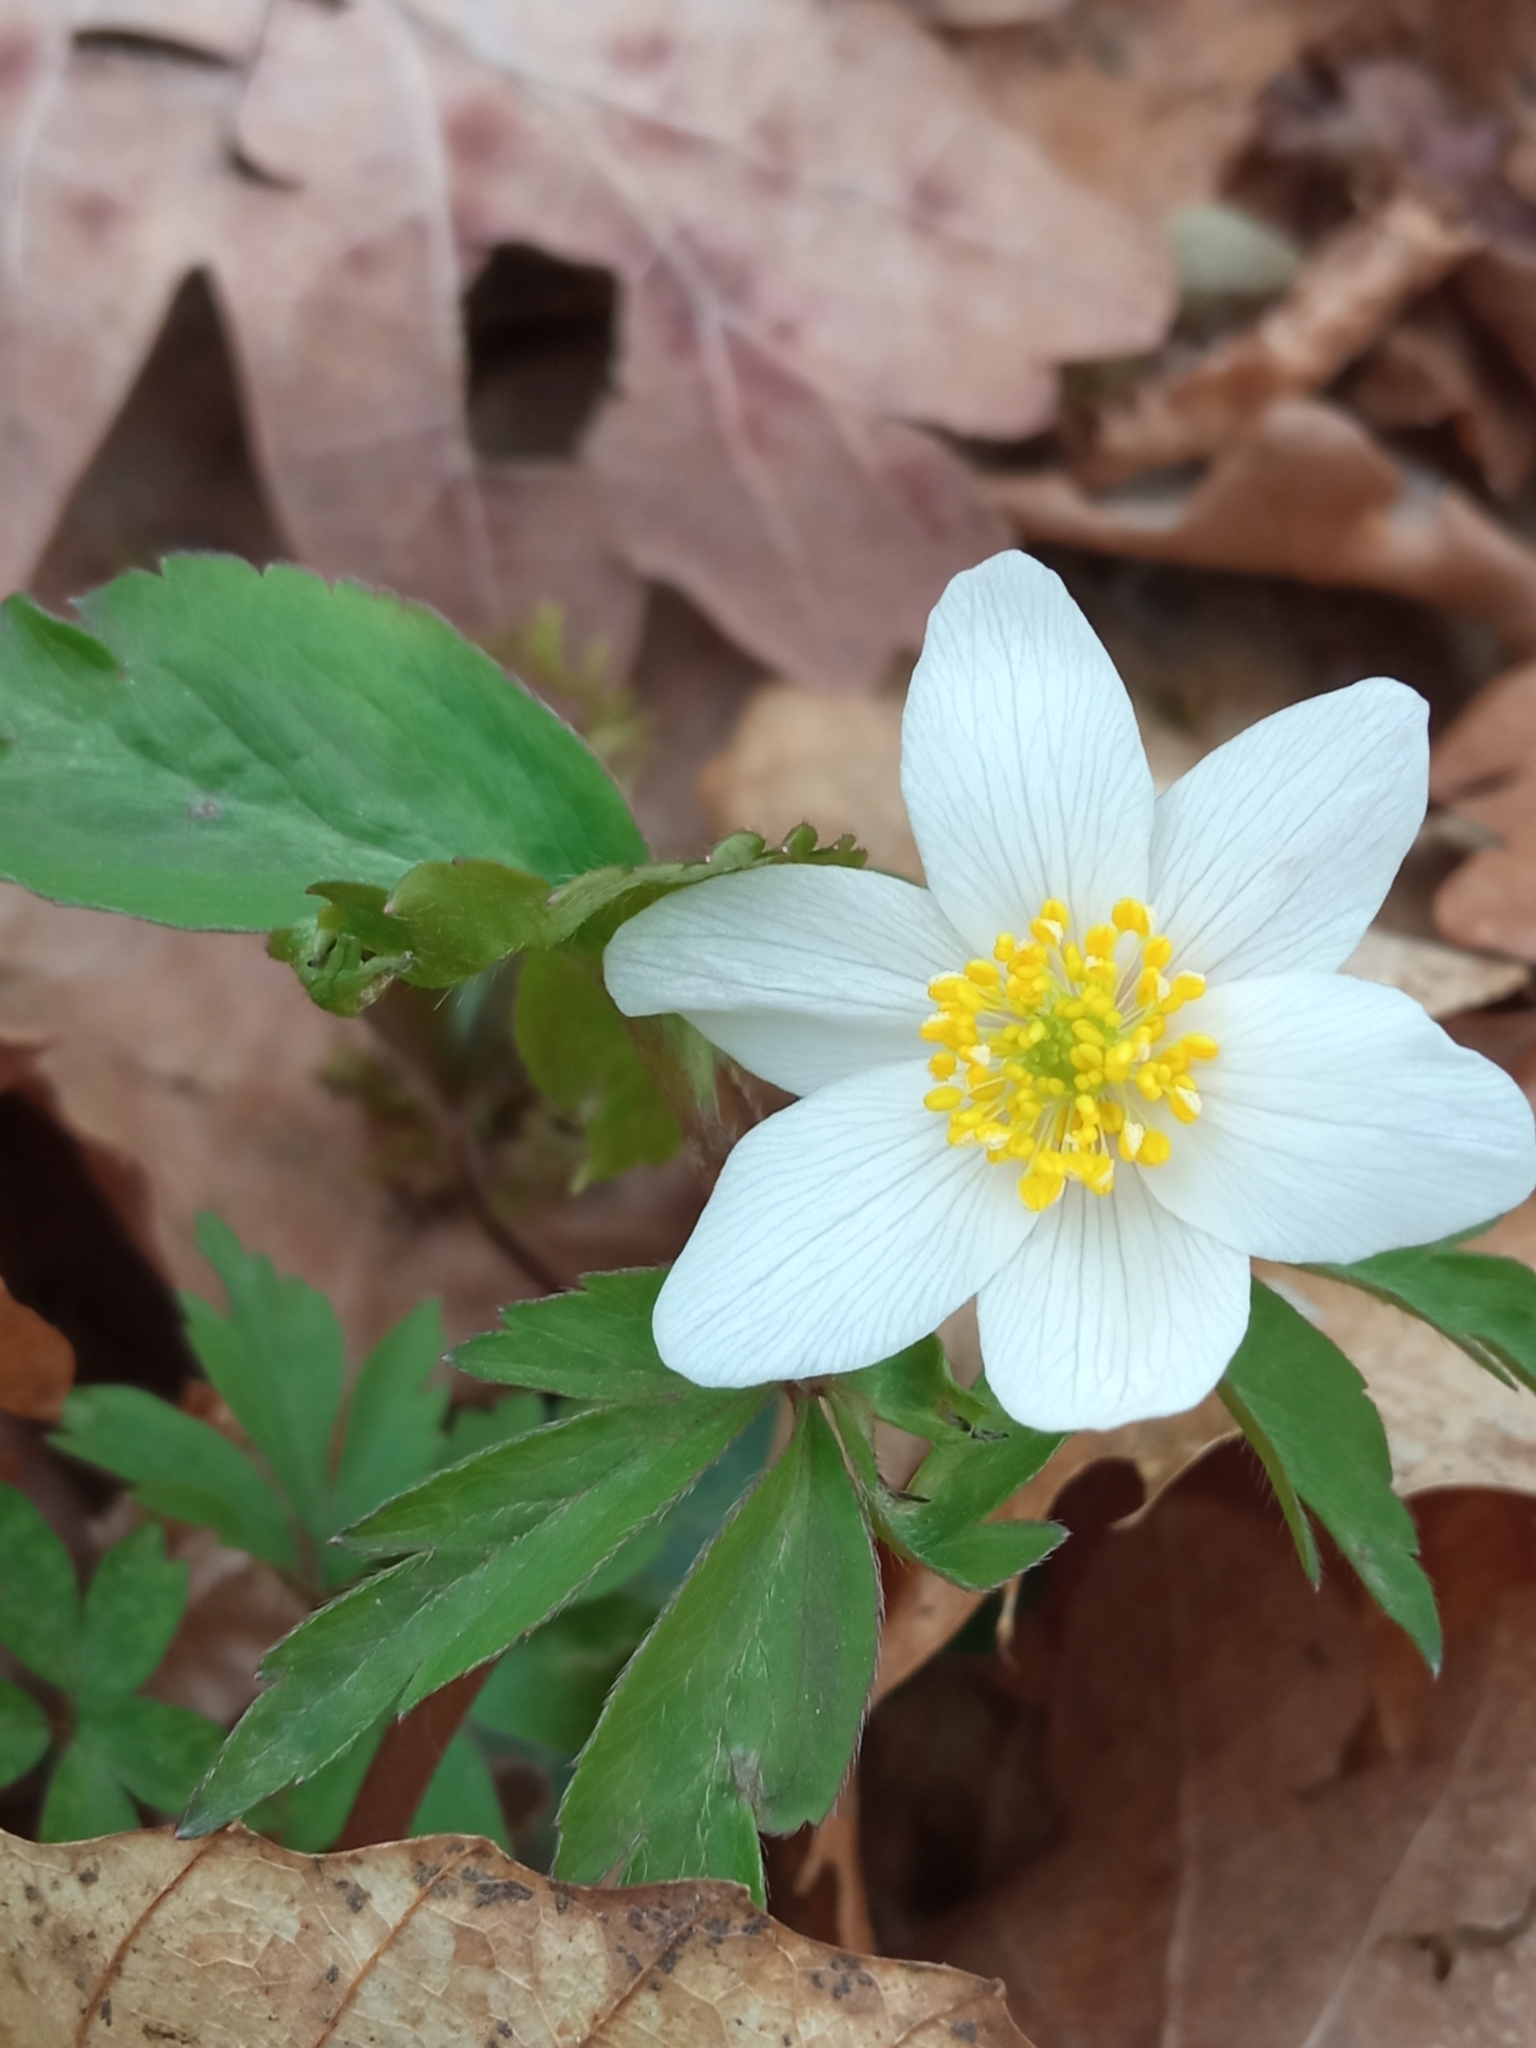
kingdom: Plantae
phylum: Tracheophyta
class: Magnoliopsida
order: Ranunculales
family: Ranunculaceae
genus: Anemone
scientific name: Anemone nemorosa
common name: Wood anemone
